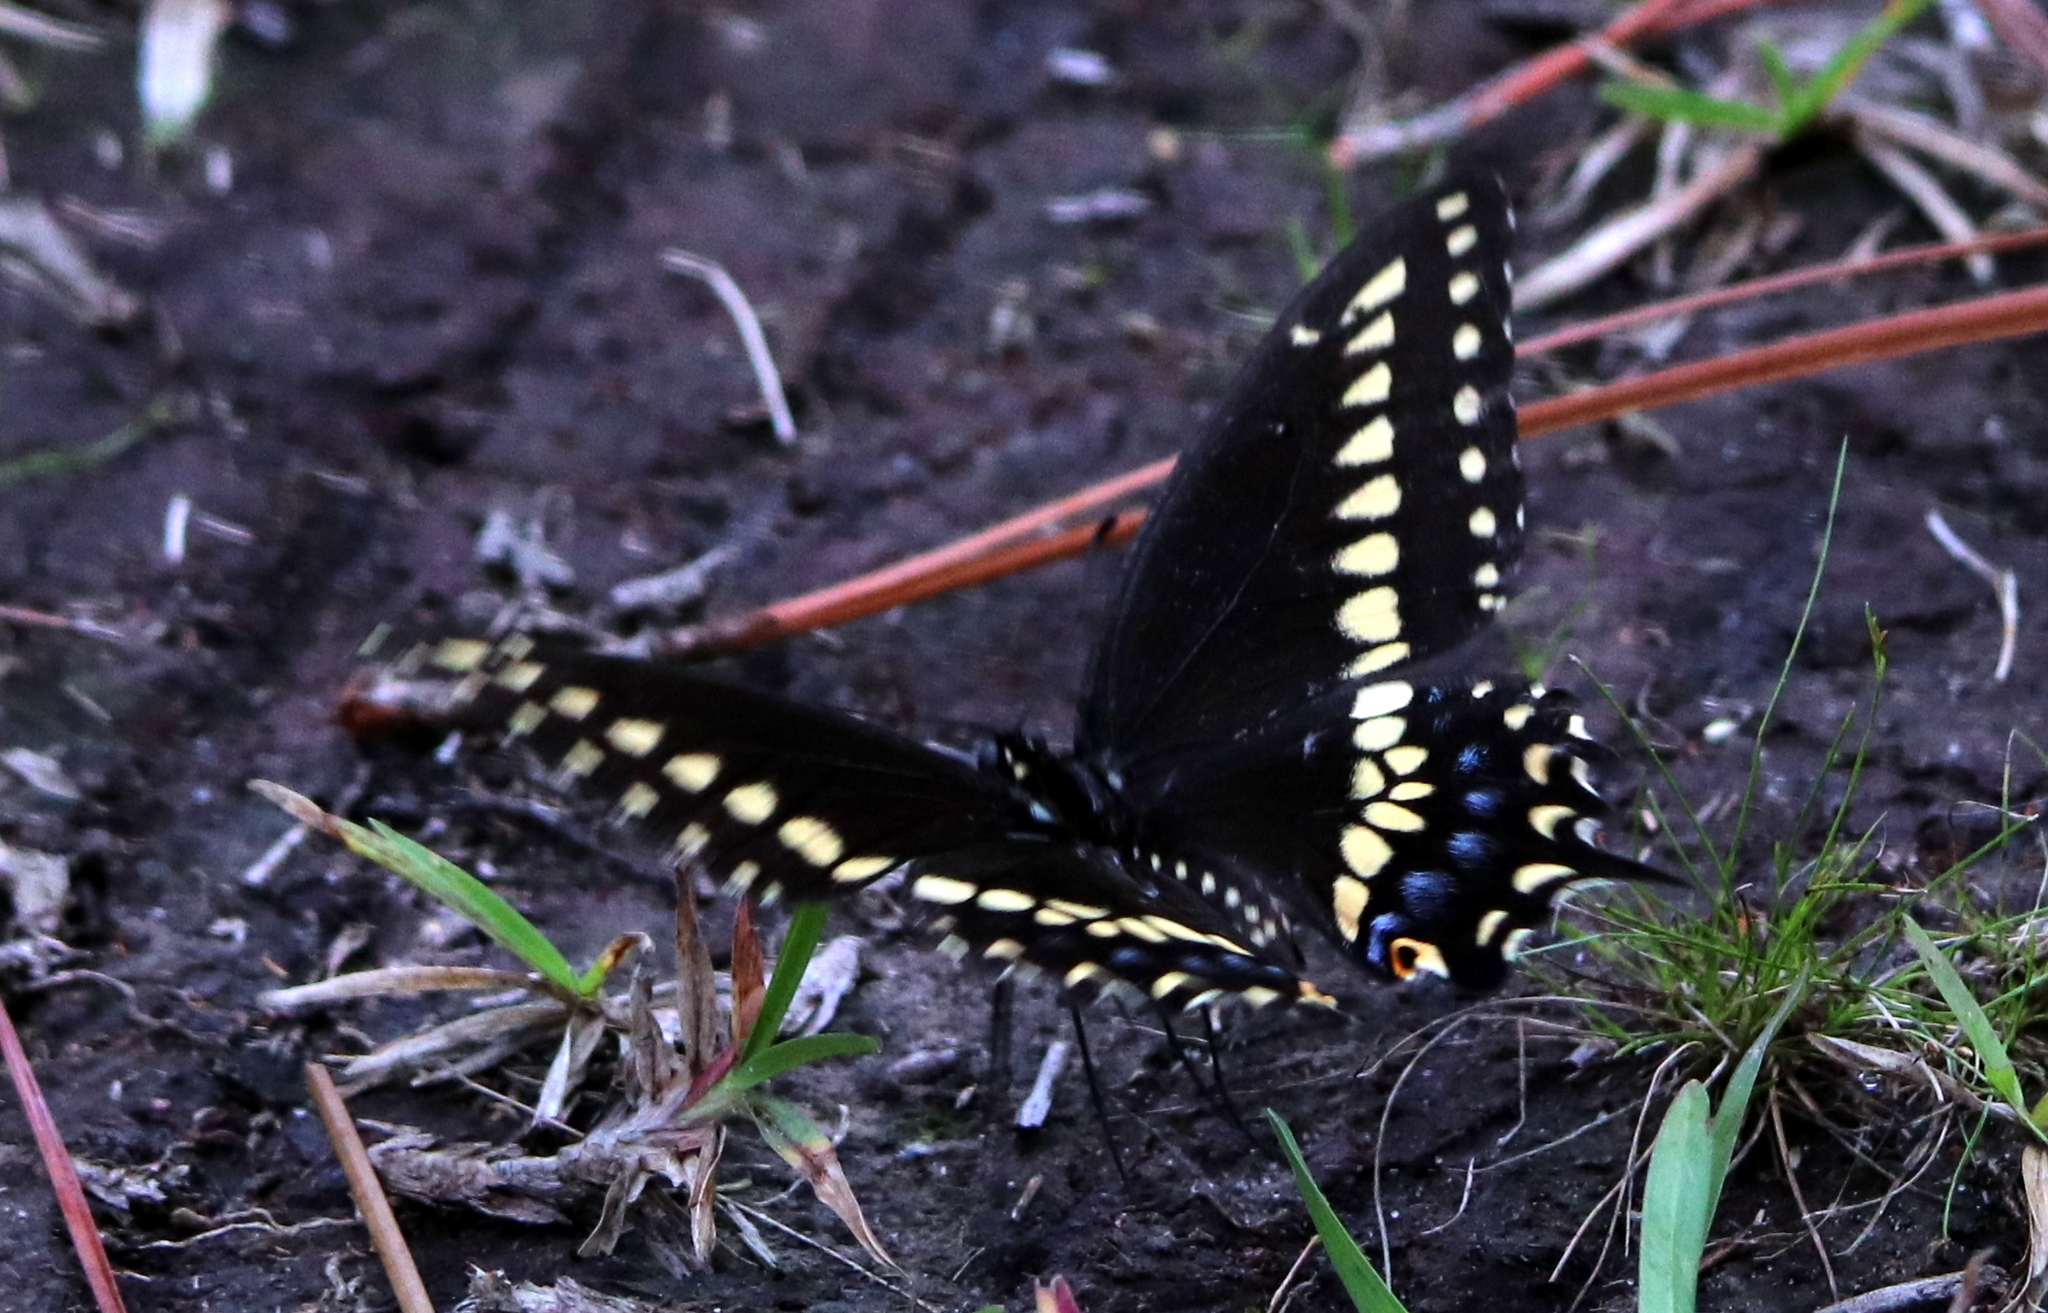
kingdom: Animalia
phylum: Arthropoda
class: Insecta
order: Lepidoptera
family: Papilionidae
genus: Papilio
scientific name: Papilio polyxenes
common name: Black swallowtail
